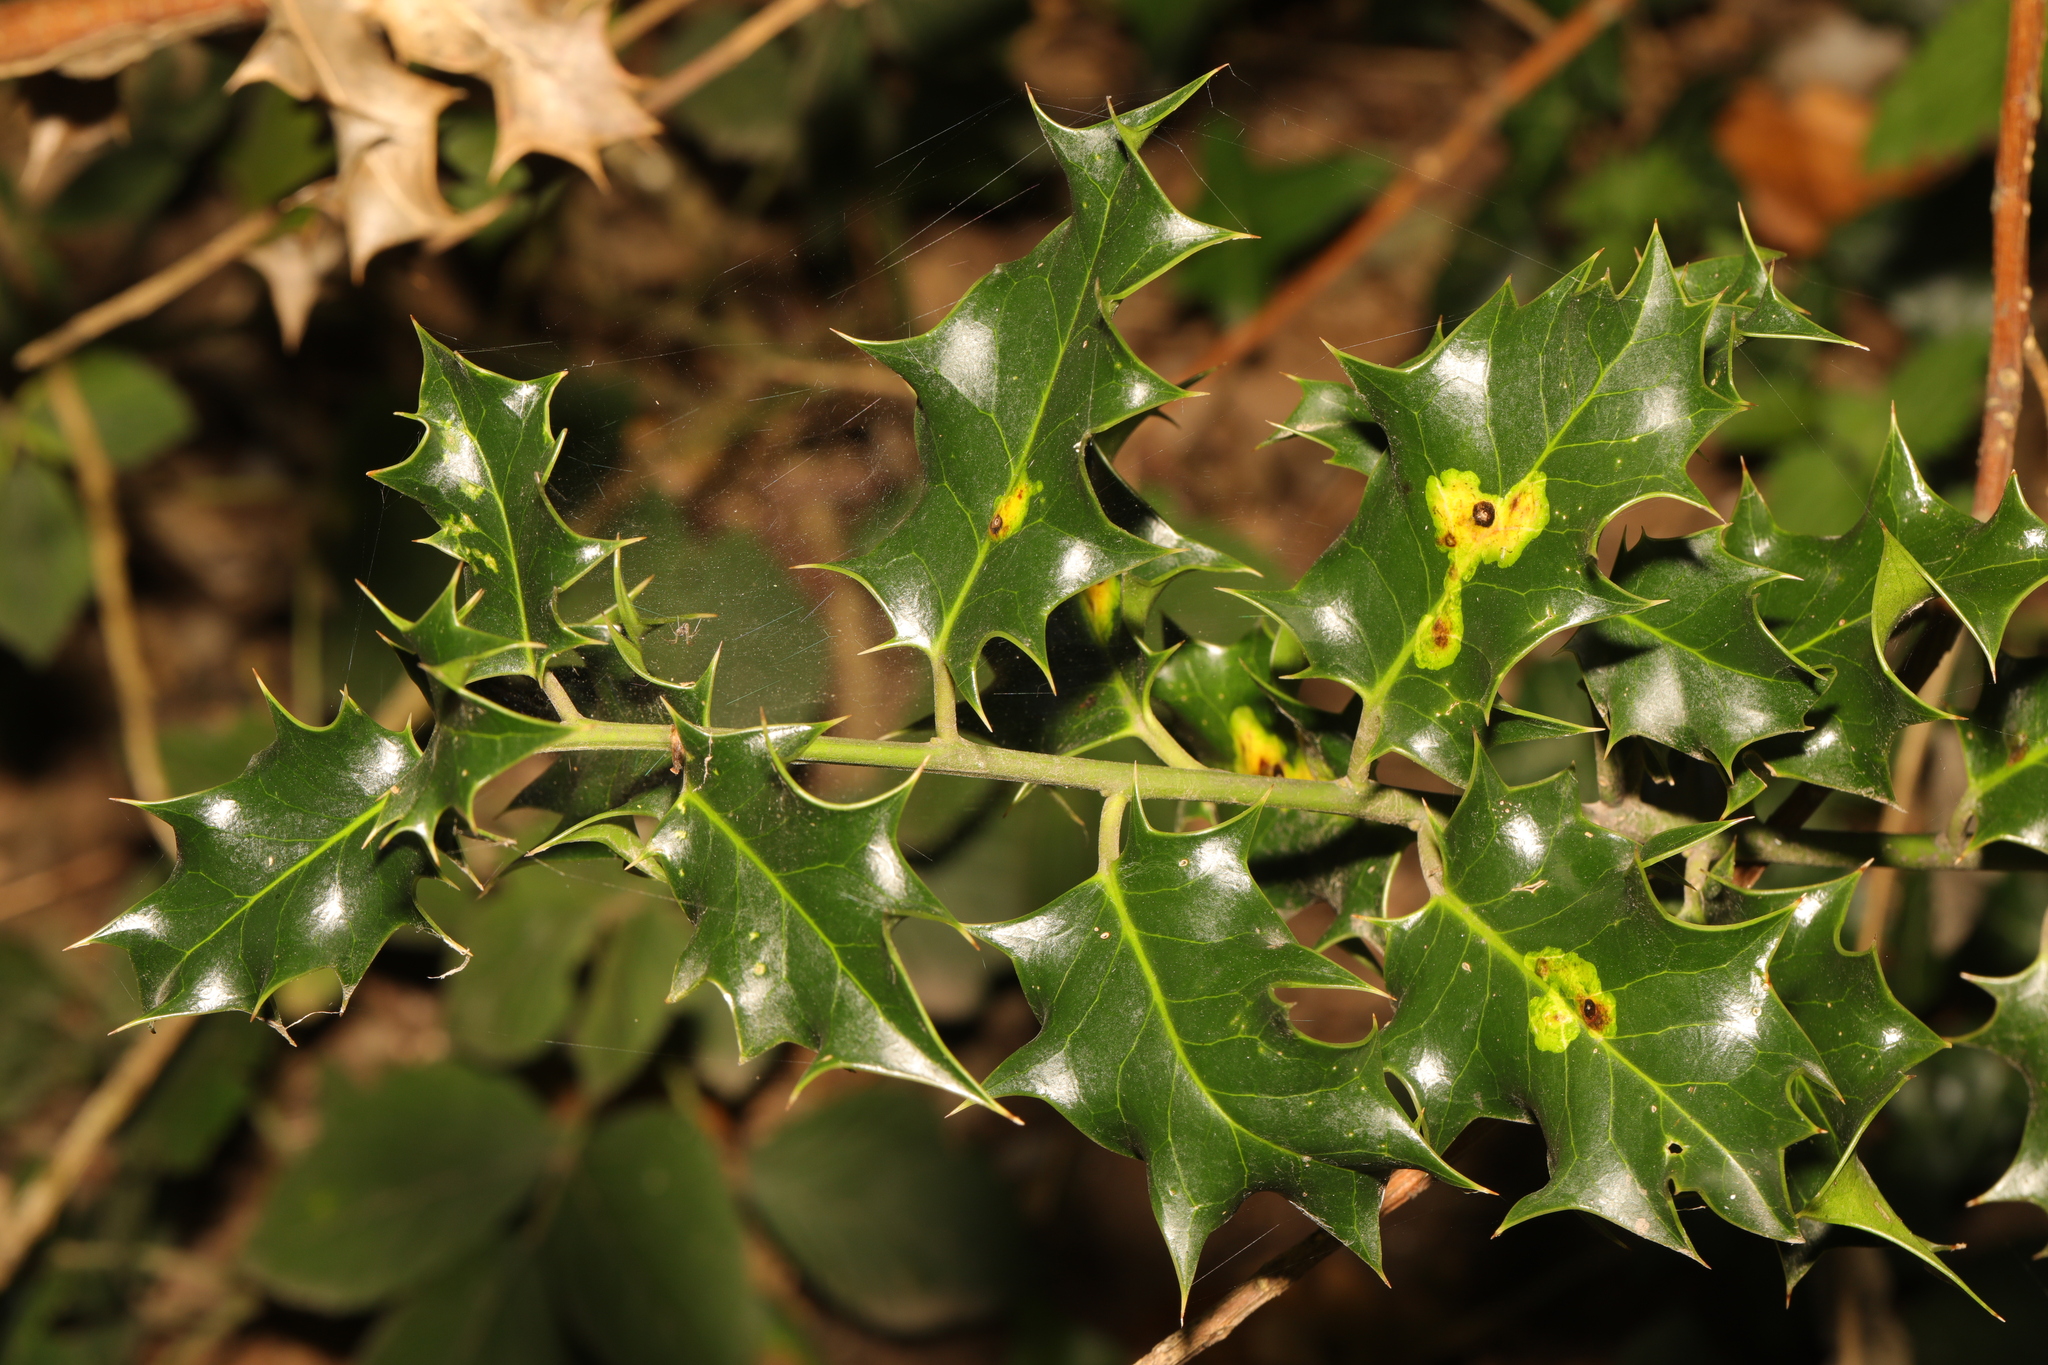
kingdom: Plantae
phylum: Tracheophyta
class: Magnoliopsida
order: Aquifoliales
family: Aquifoliaceae
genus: Ilex
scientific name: Ilex aquifolium
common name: English holly
